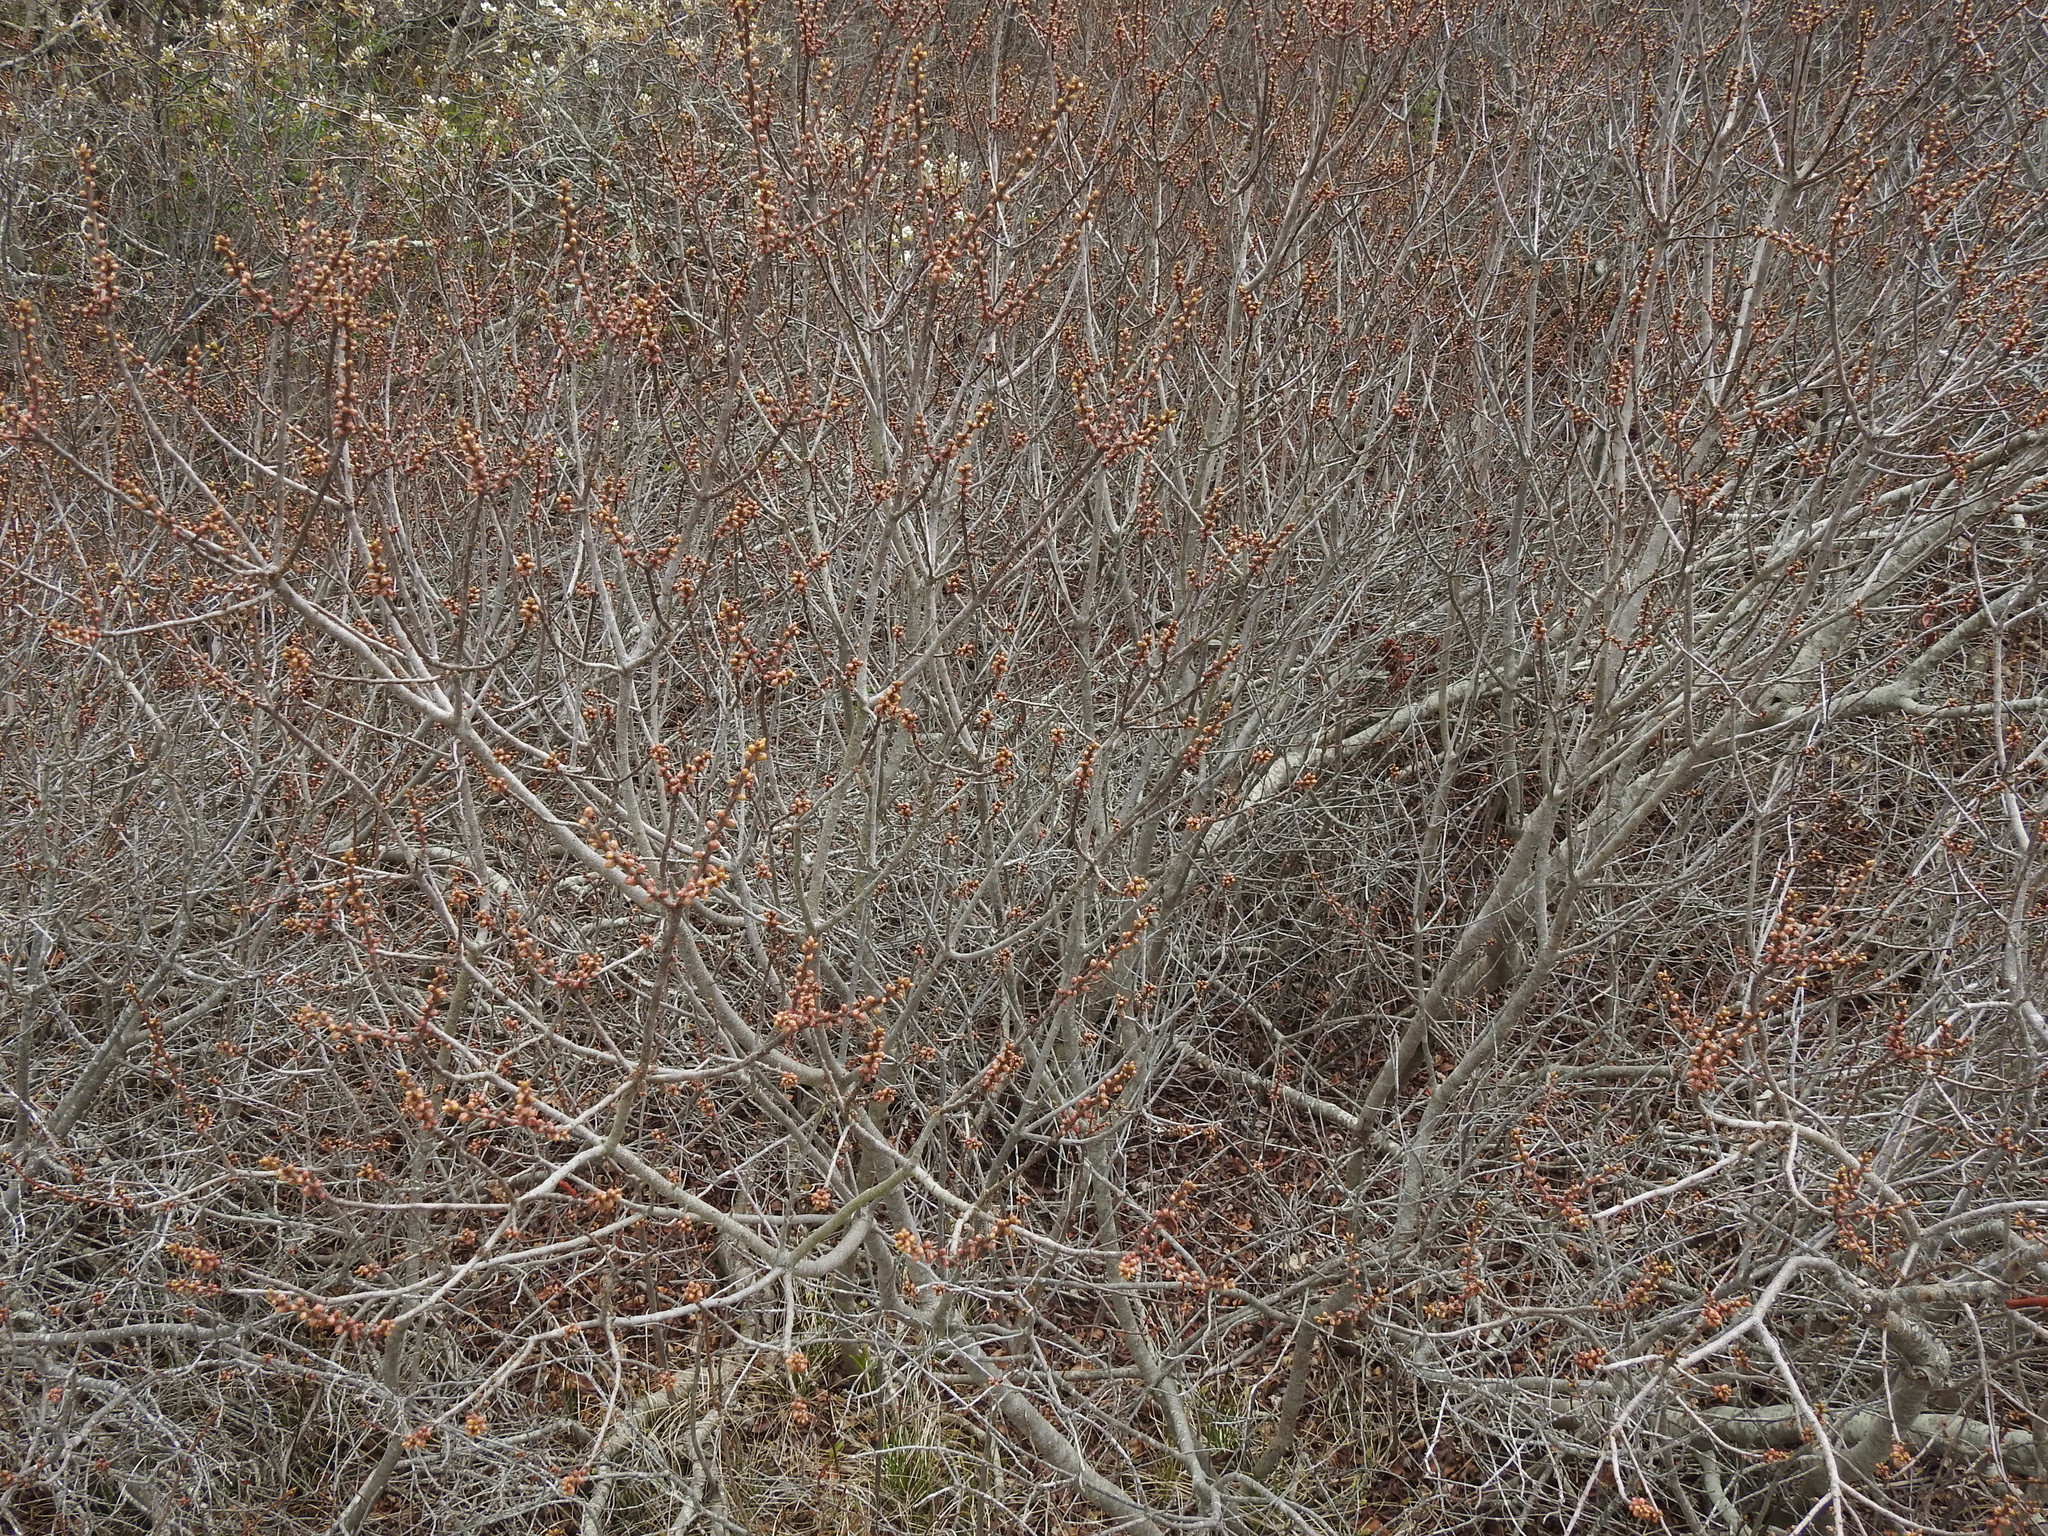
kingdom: Plantae
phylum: Tracheophyta
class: Magnoliopsida
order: Fagales
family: Myricaceae
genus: Morella
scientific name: Morella pensylvanica
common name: Northern bayberry
